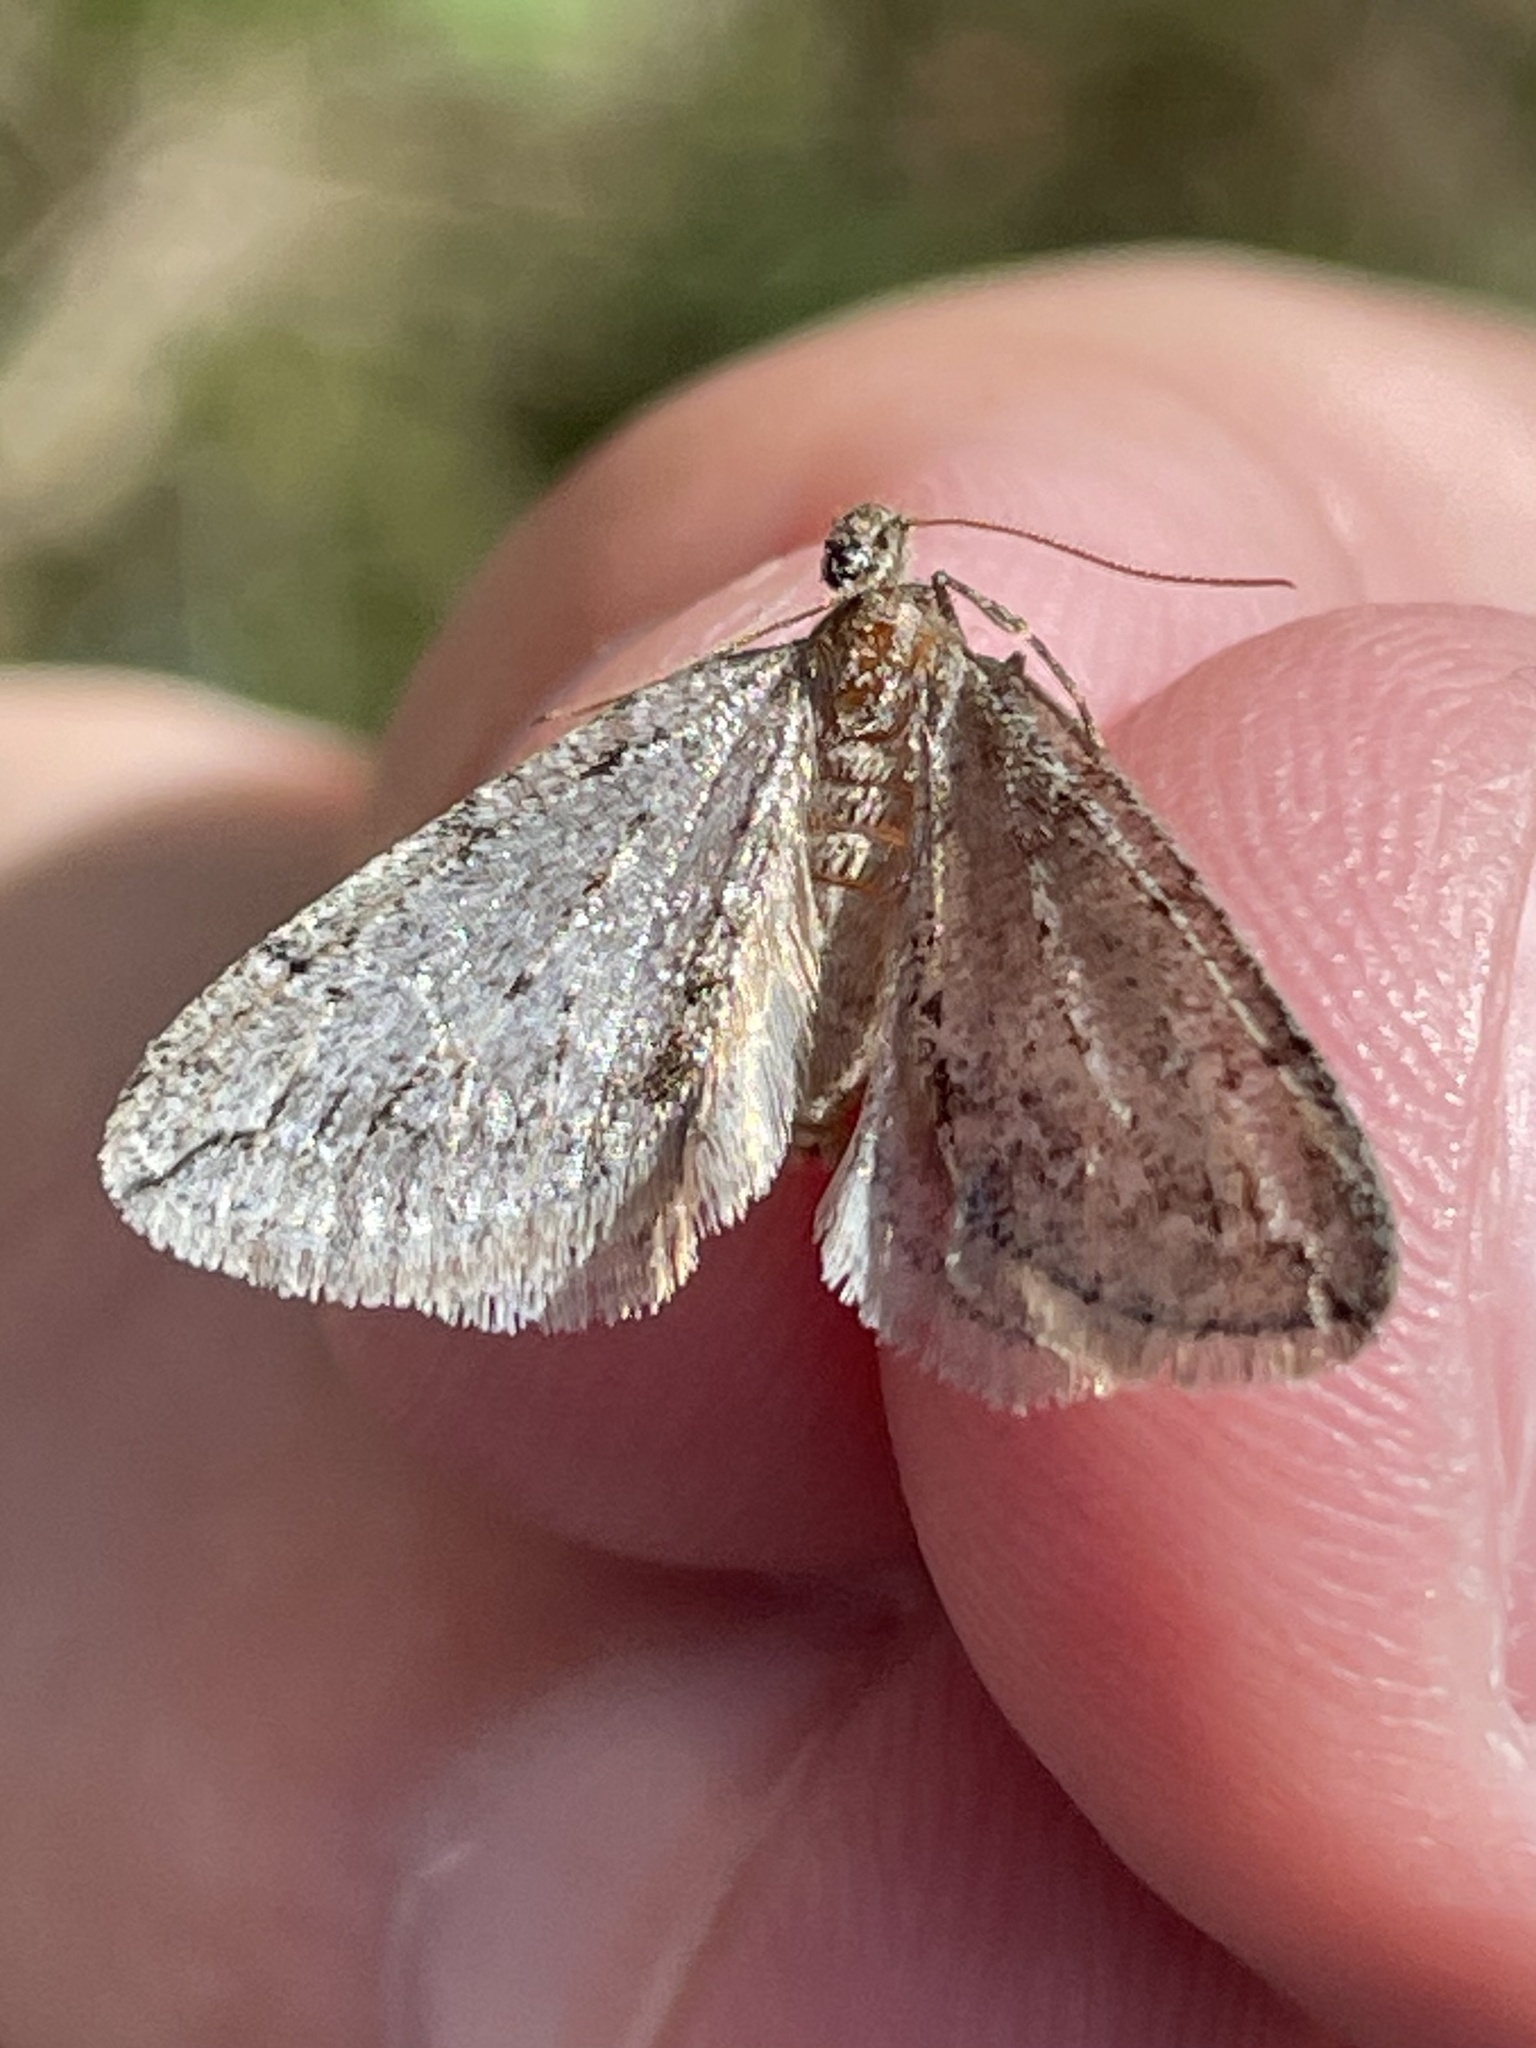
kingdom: Animalia
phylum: Arthropoda
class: Insecta
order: Lepidoptera
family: Geometridae
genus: Paleacrita
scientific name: Paleacrita vernata
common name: Spring cankerworm
